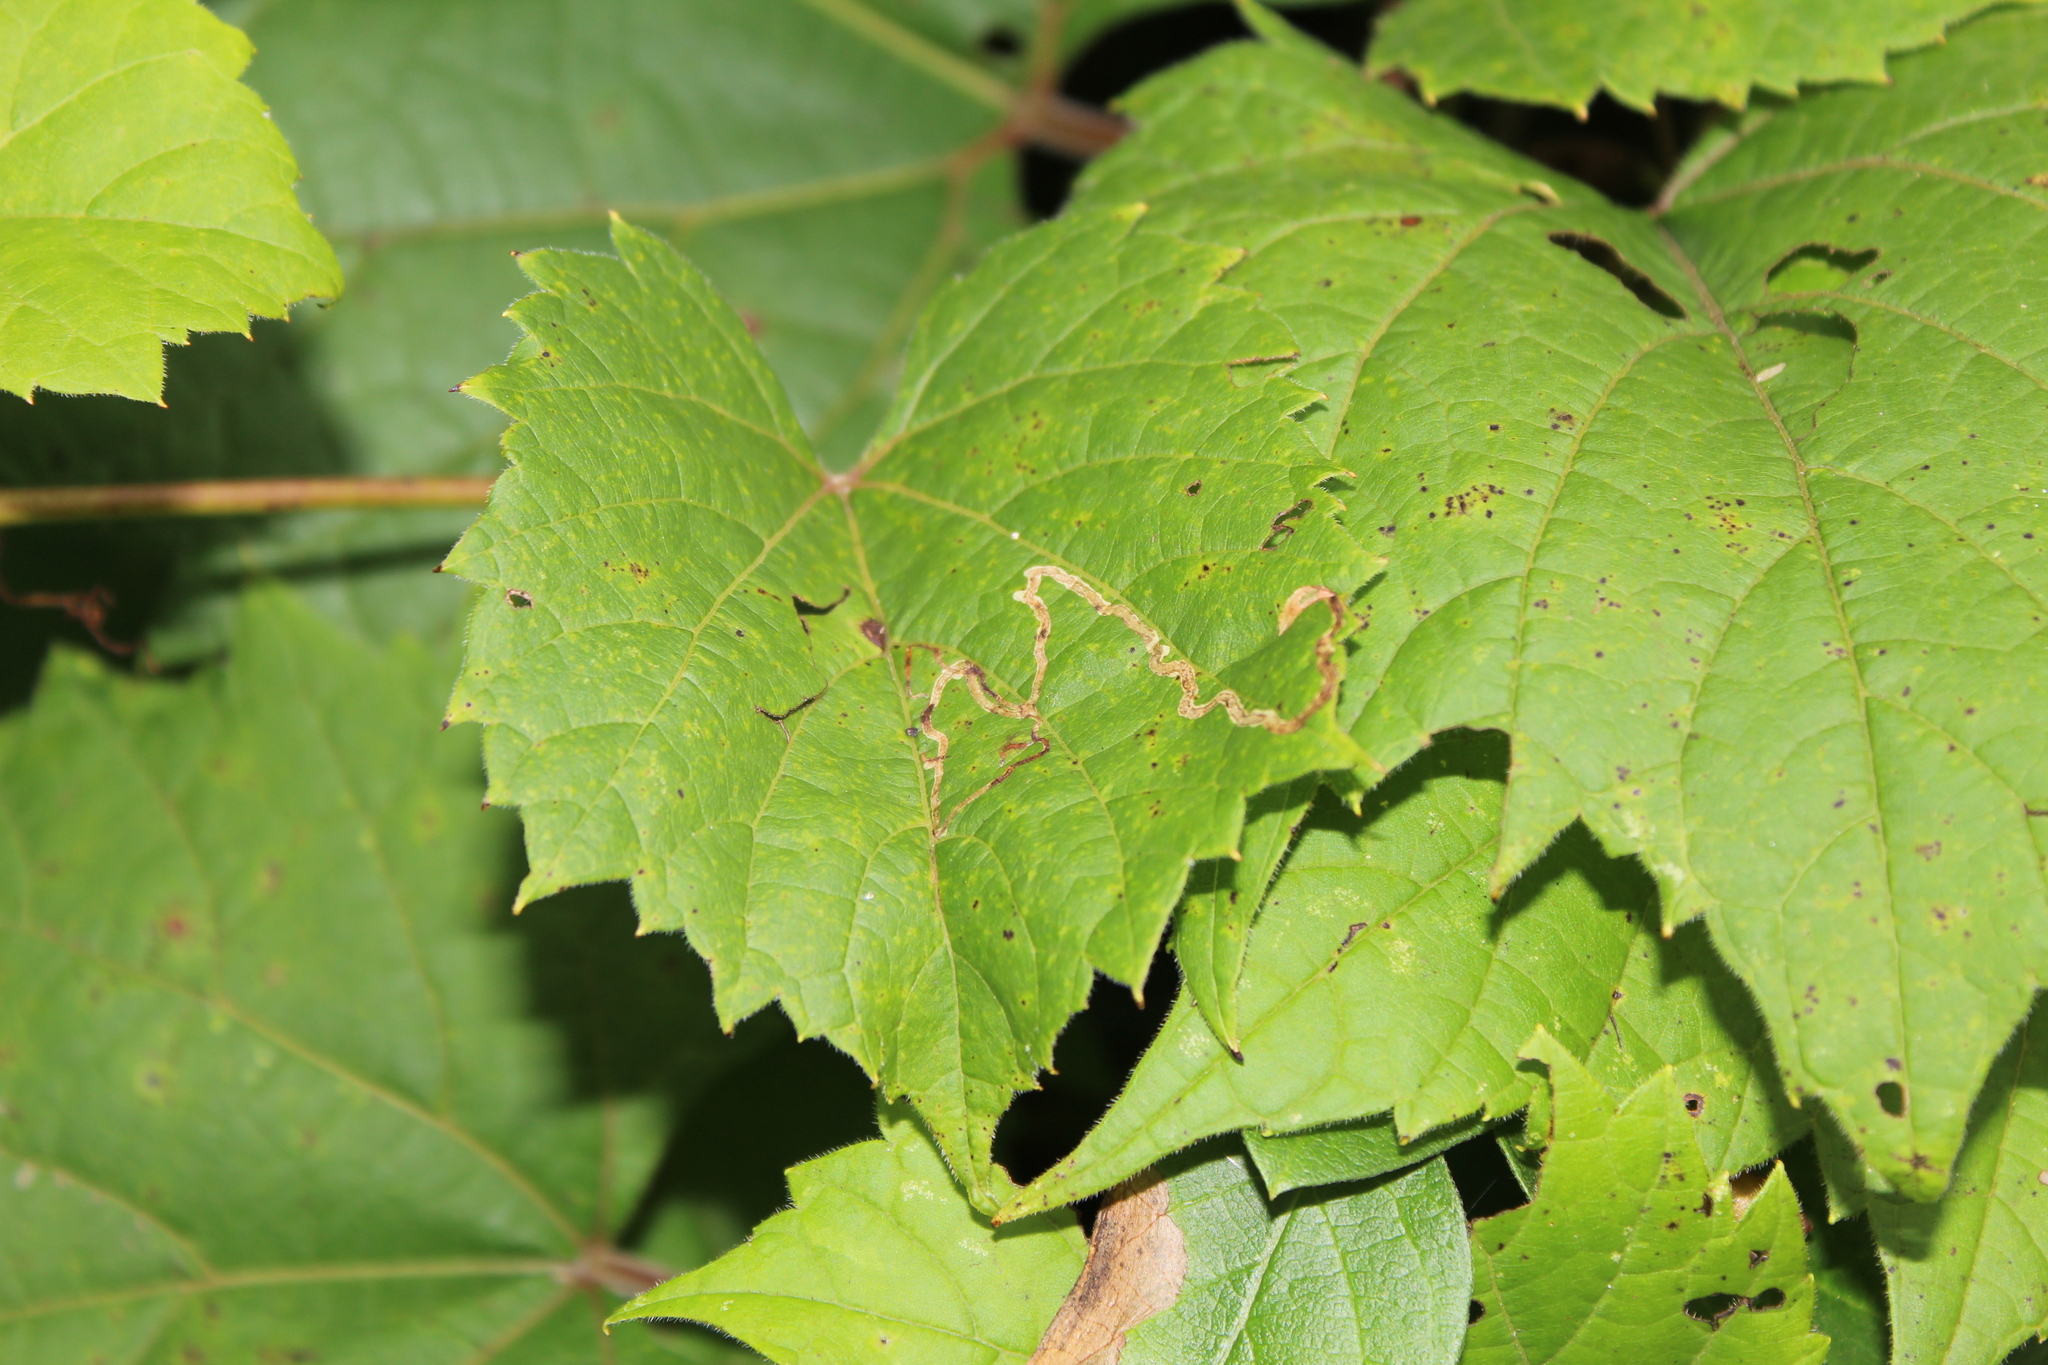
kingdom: Animalia
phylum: Arthropoda
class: Insecta
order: Lepidoptera
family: Gracillariidae
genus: Phyllocnistis
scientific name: Phyllocnistis vitifoliella
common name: Grape leaf-miner moth
